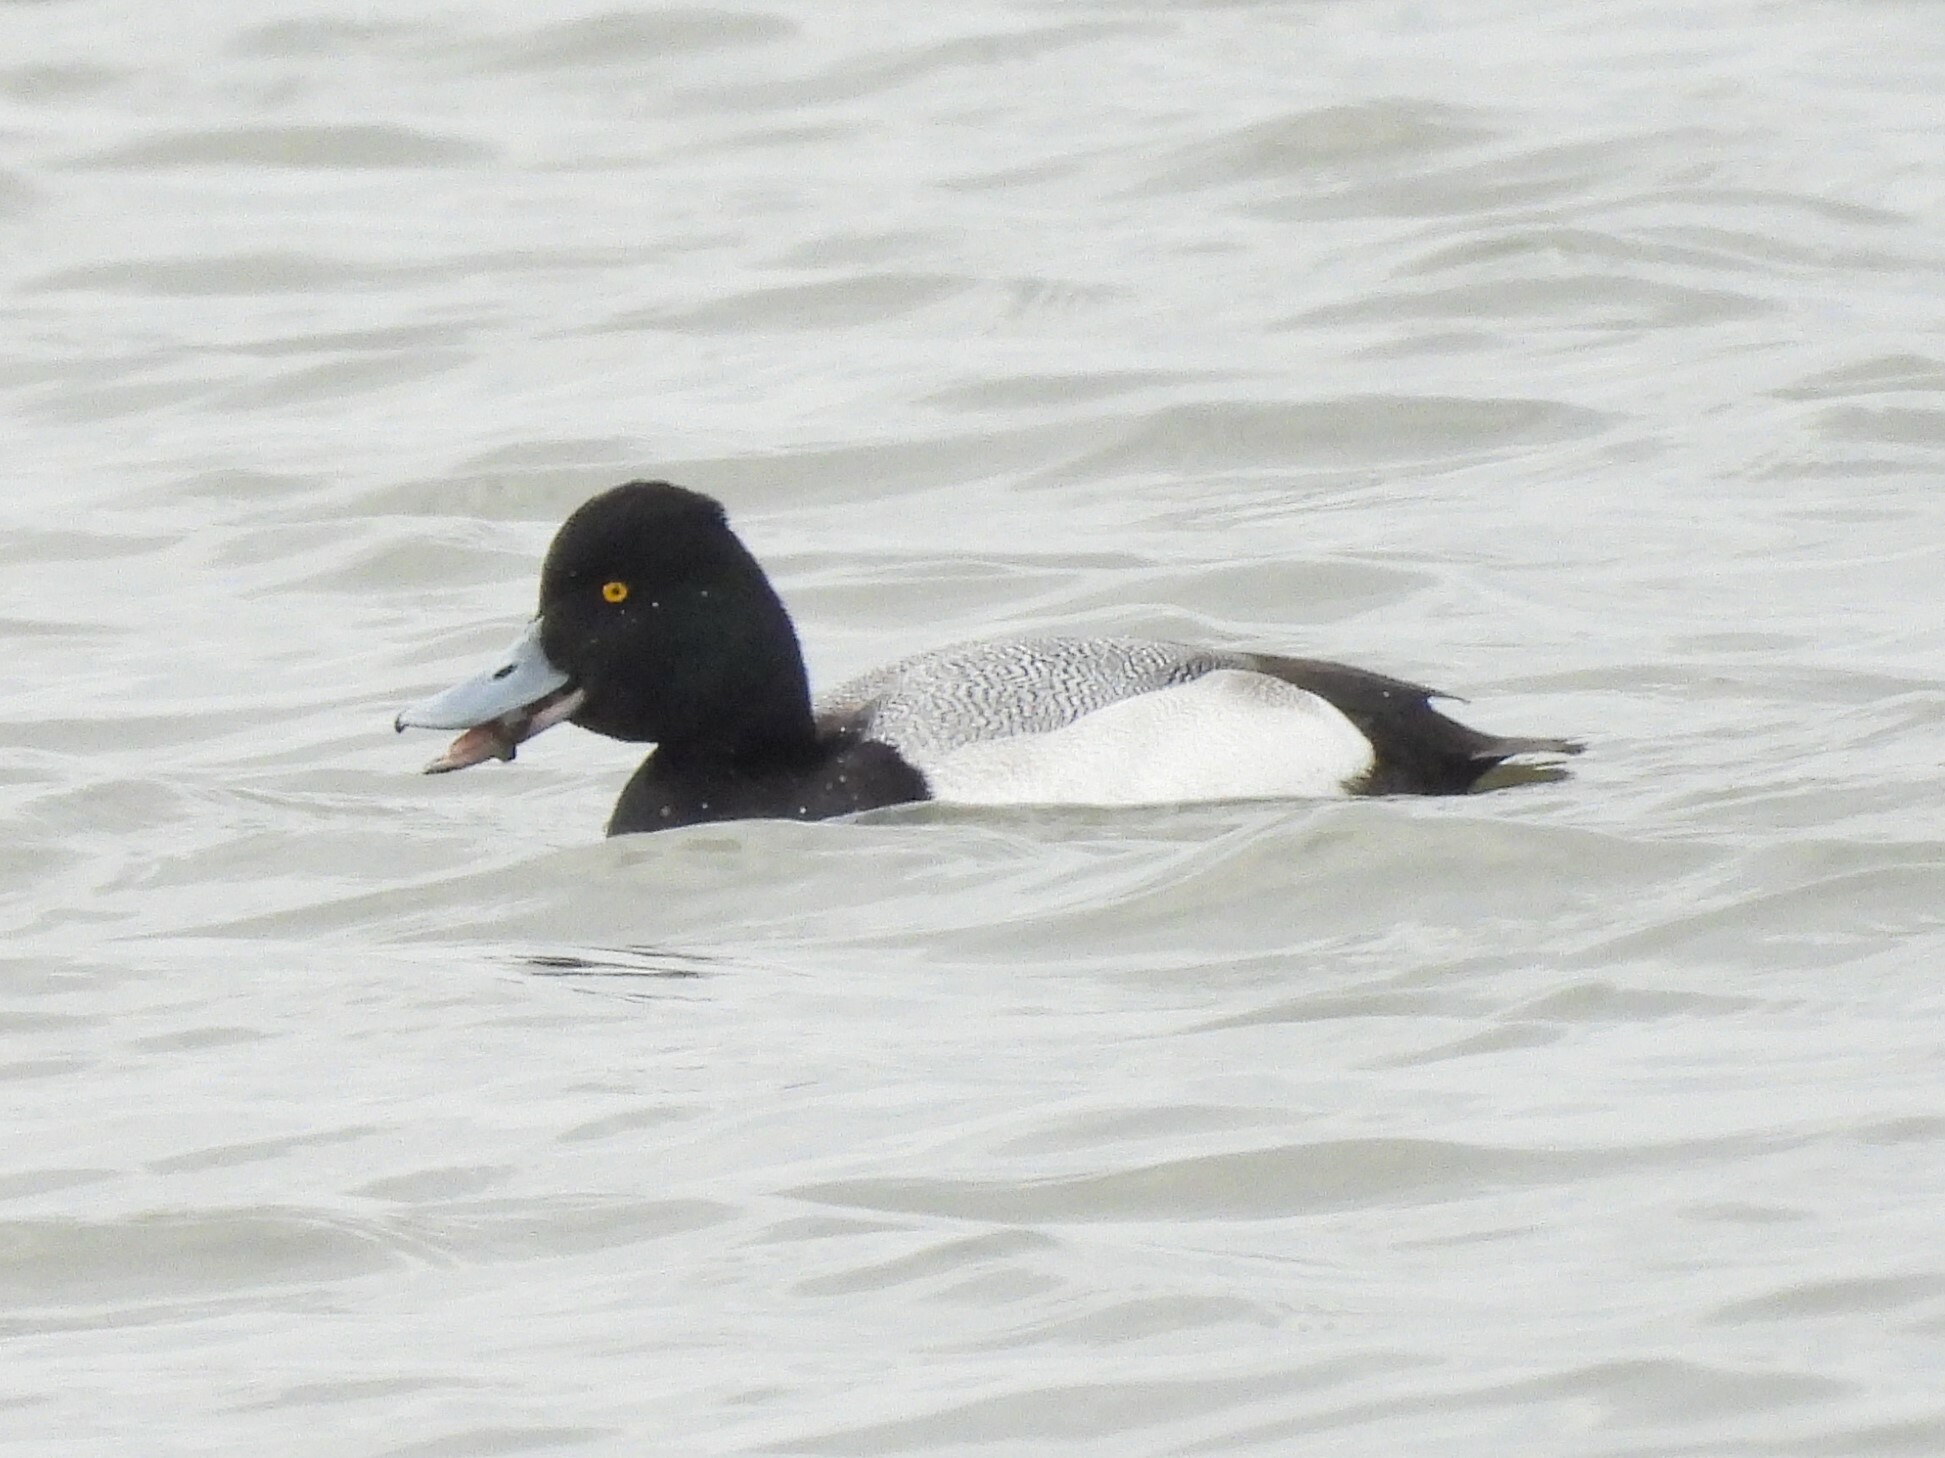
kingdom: Animalia
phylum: Chordata
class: Aves
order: Anseriformes
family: Anatidae
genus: Aythya
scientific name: Aythya affinis
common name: Lesser scaup
